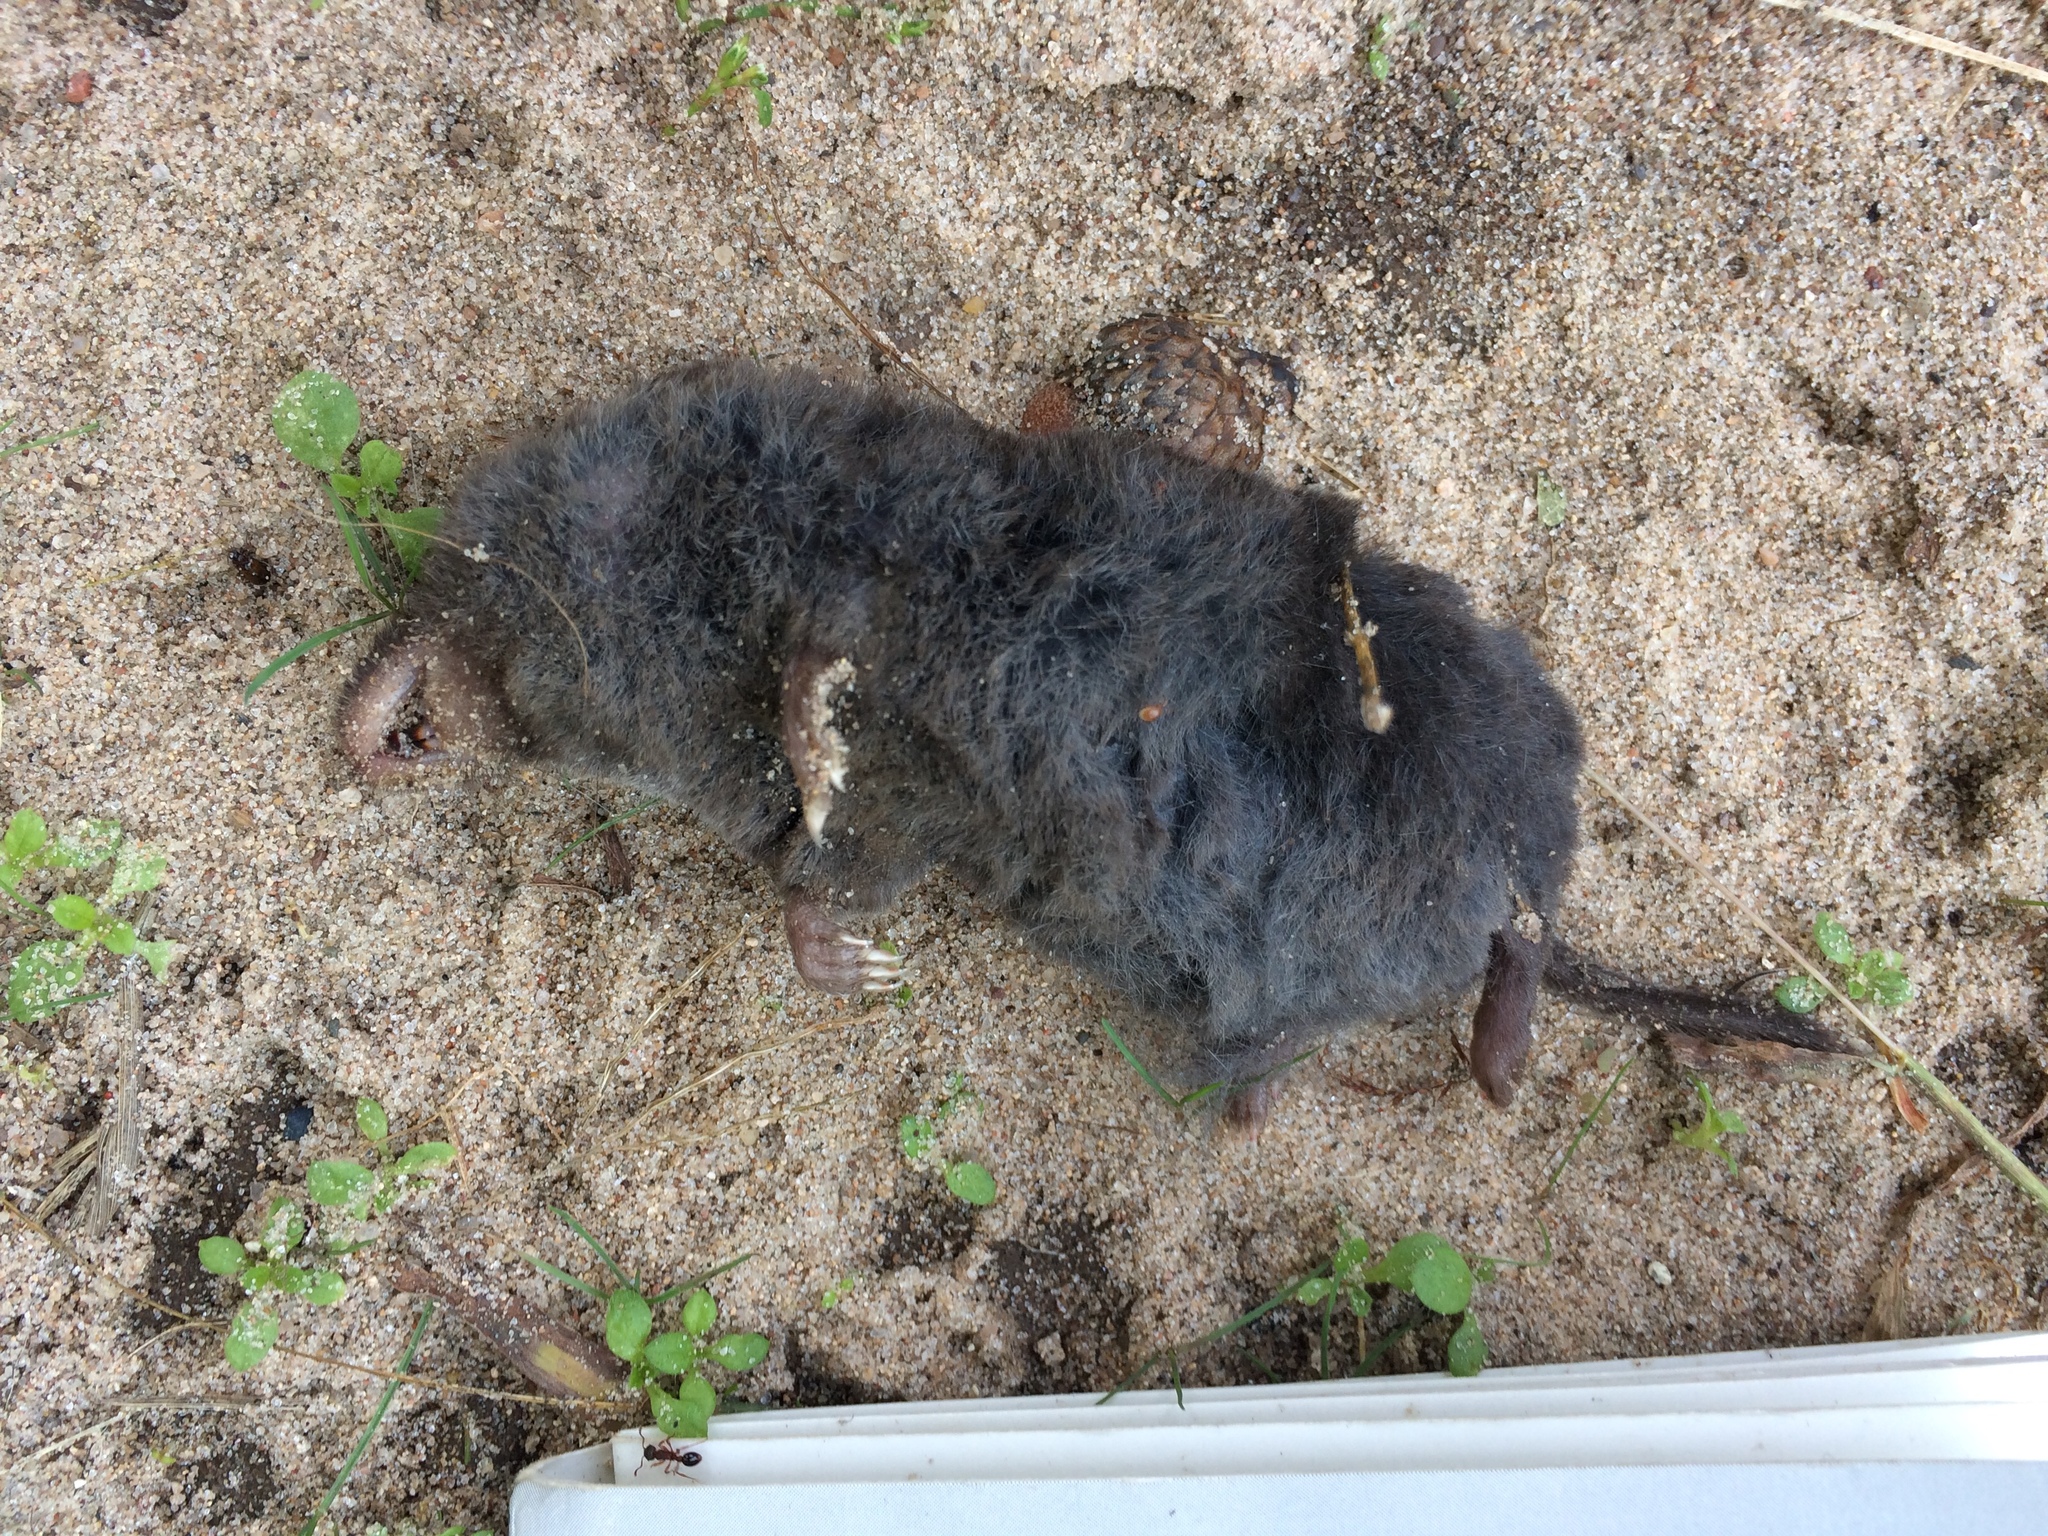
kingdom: Animalia
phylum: Chordata
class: Mammalia
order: Soricomorpha
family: Soricidae
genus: Blarina
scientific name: Blarina brevicauda
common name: Northern short-tailed shrew
